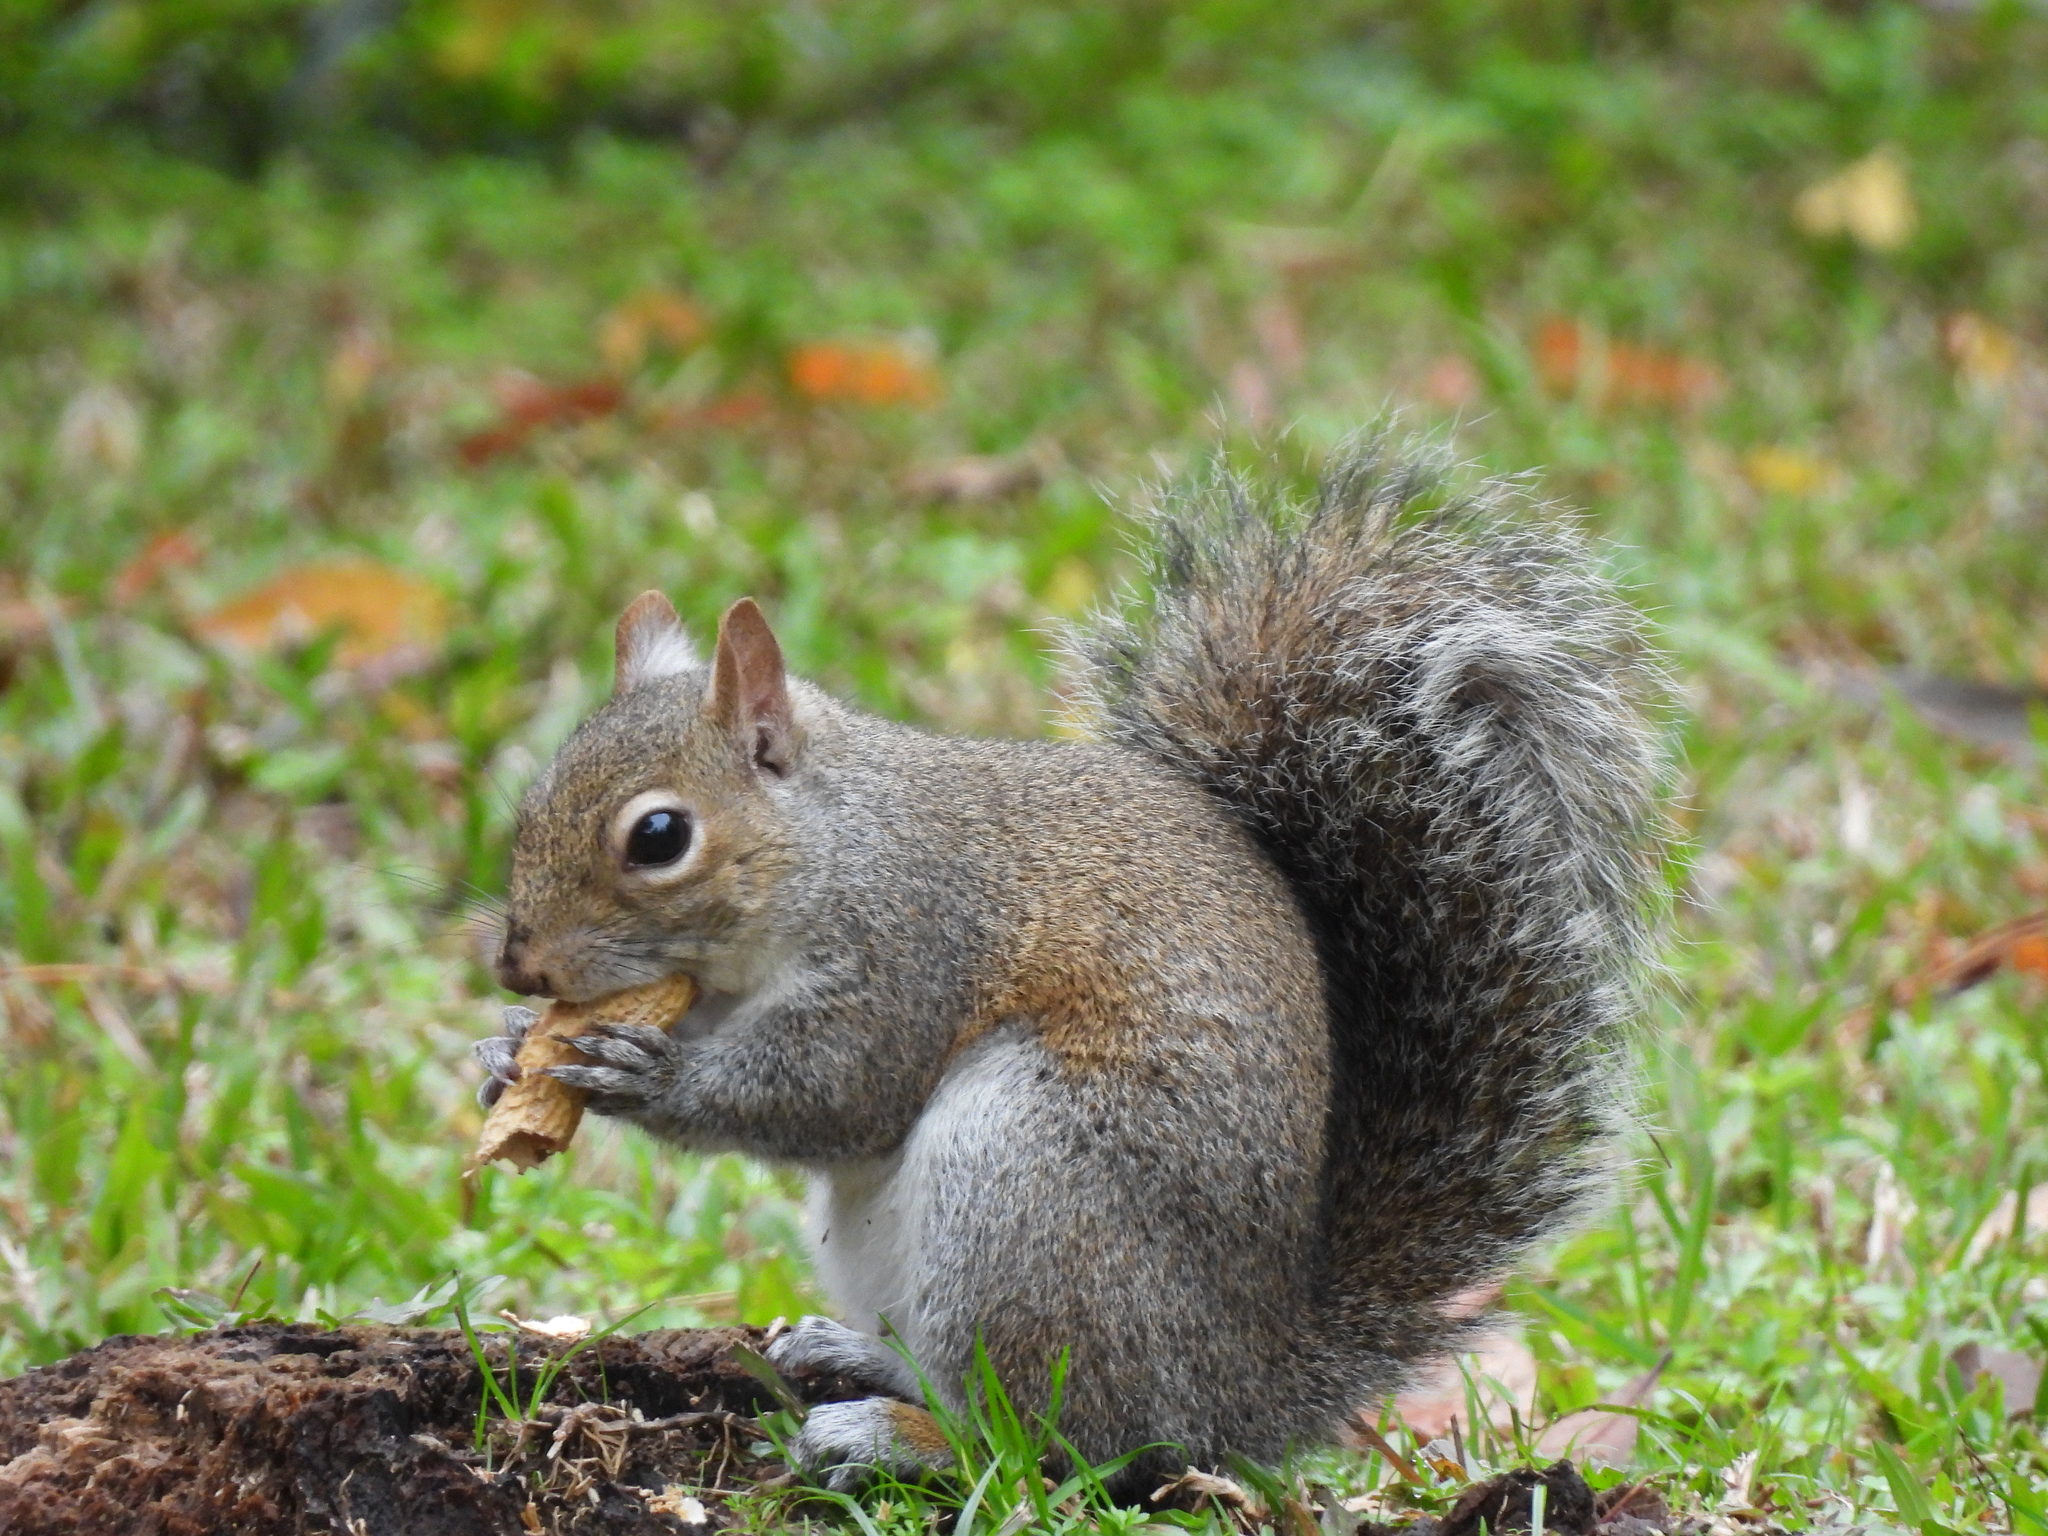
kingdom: Animalia
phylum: Chordata
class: Mammalia
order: Rodentia
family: Sciuridae
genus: Sciurus
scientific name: Sciurus carolinensis
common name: Eastern gray squirrel
